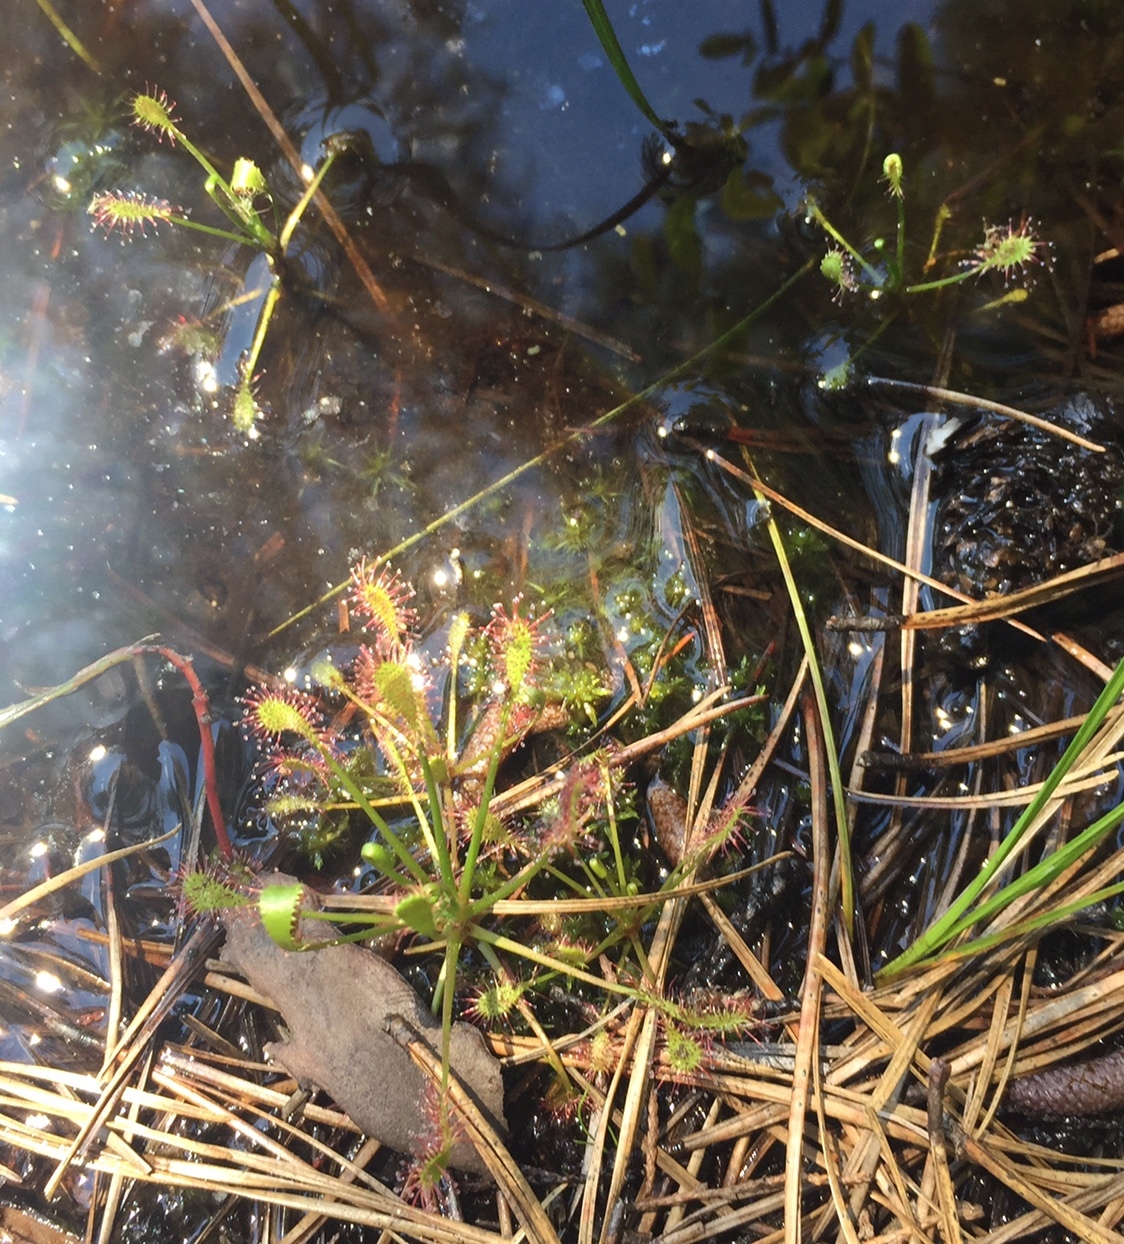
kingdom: Plantae
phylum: Tracheophyta
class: Magnoliopsida
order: Caryophyllales
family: Droseraceae
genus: Drosera
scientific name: Drosera intermedia
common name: Oblong-leaved sundew
